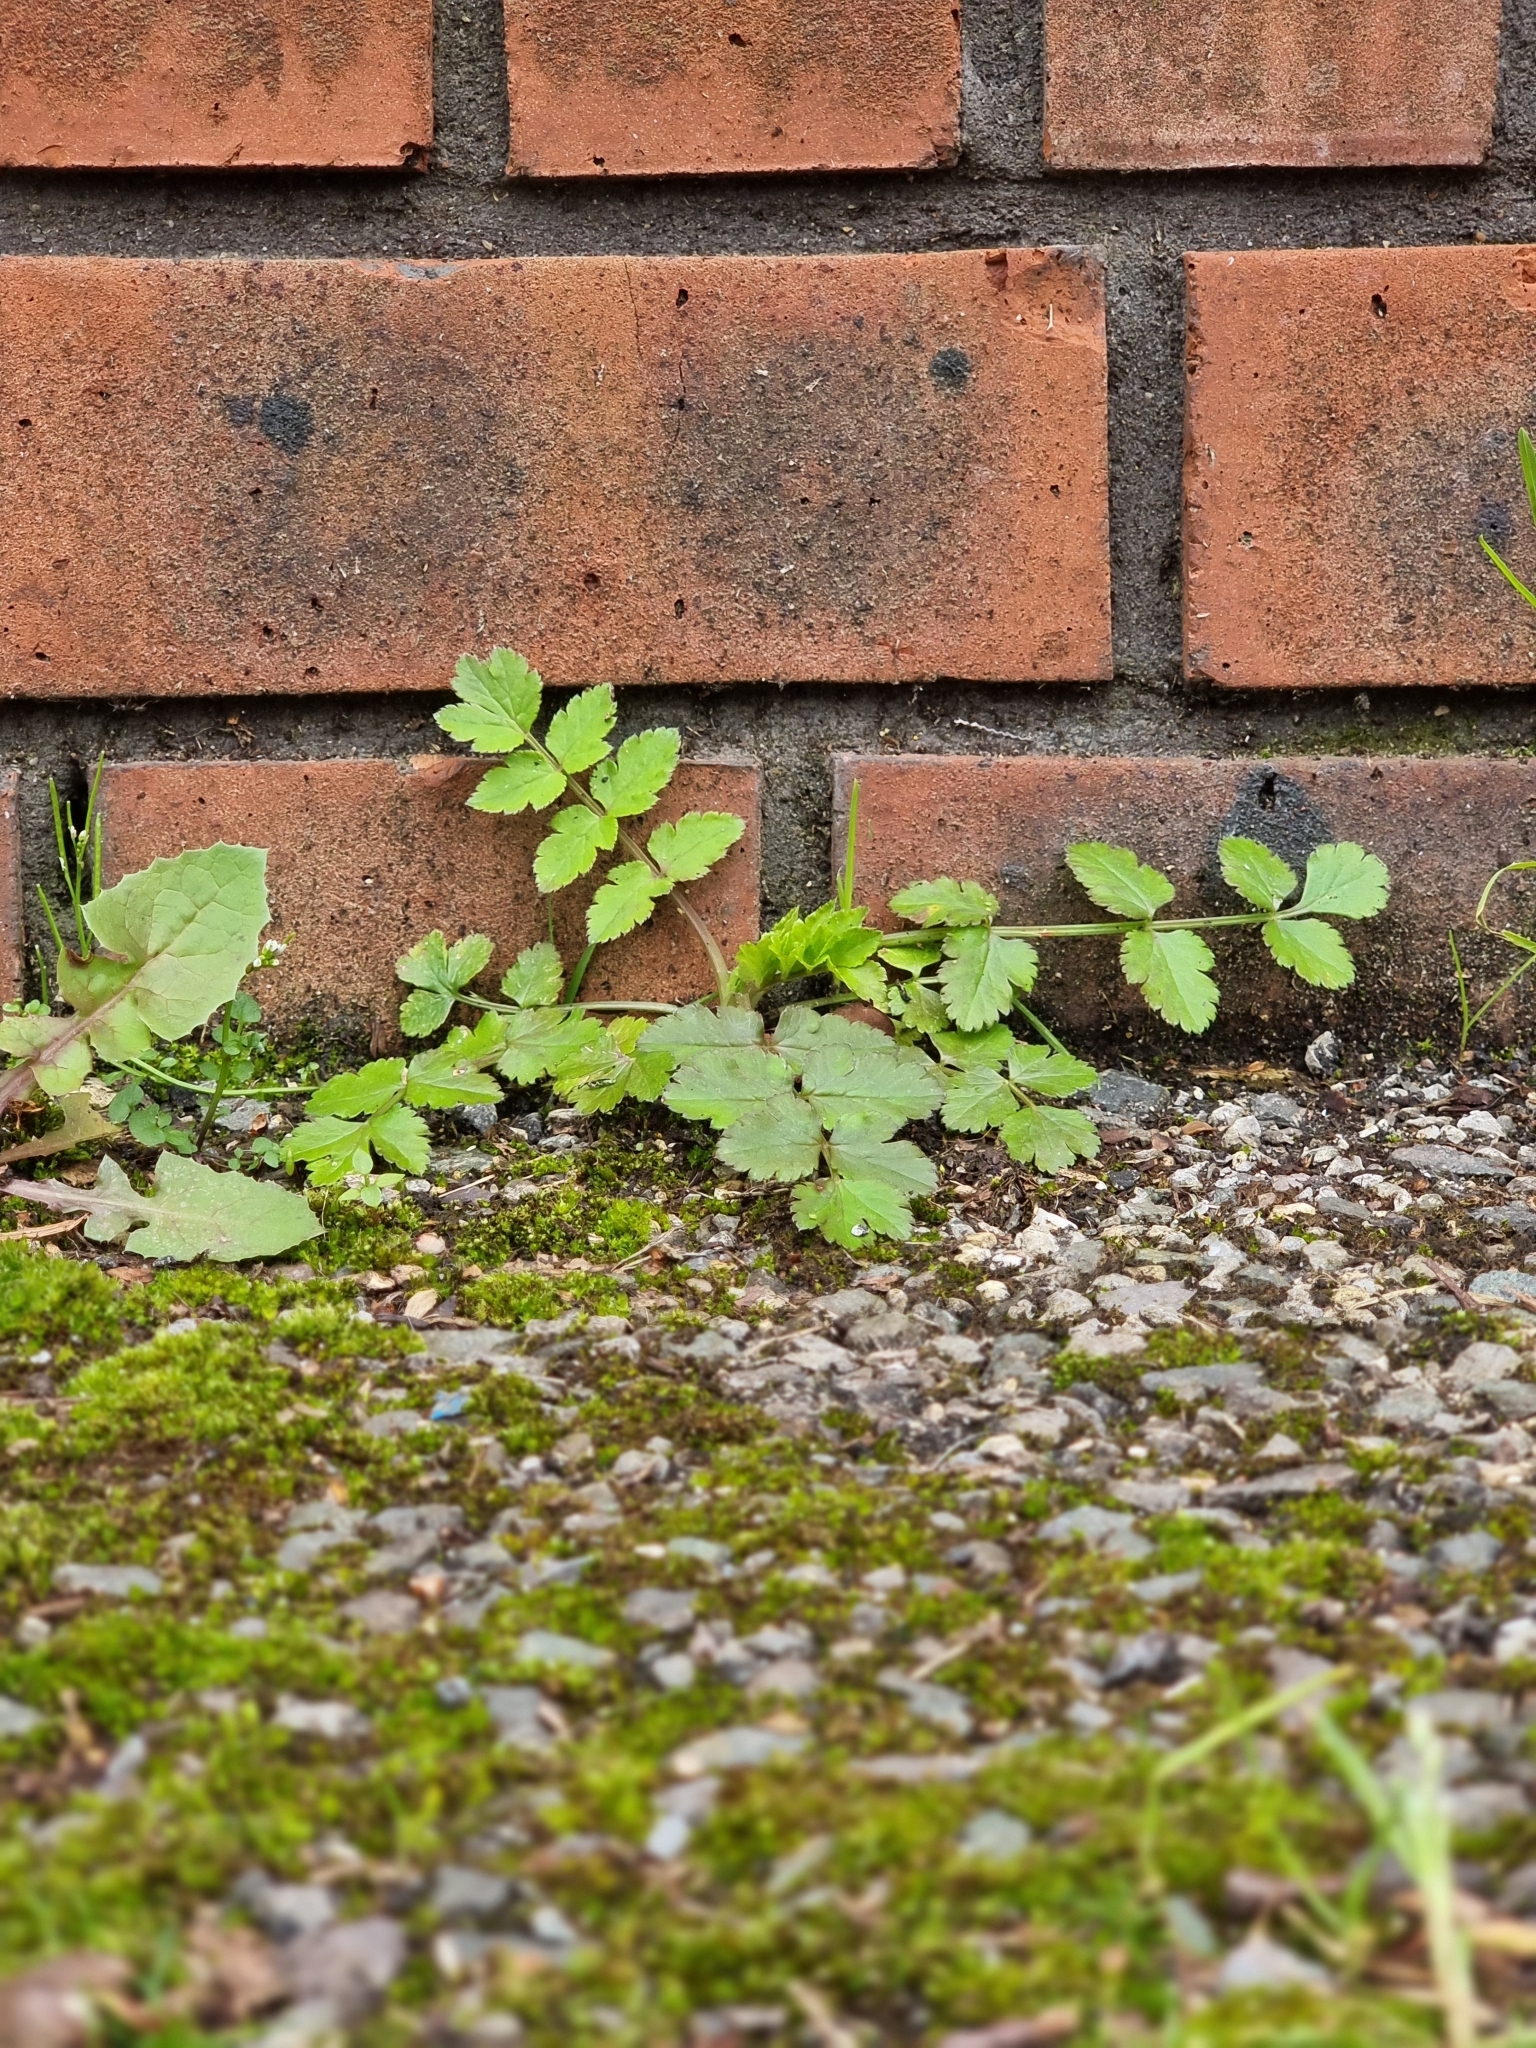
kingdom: Plantae
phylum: Tracheophyta
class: Magnoliopsida
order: Apiales
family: Apiaceae
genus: Sison
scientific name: Sison amomum
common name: Stone-parsley
